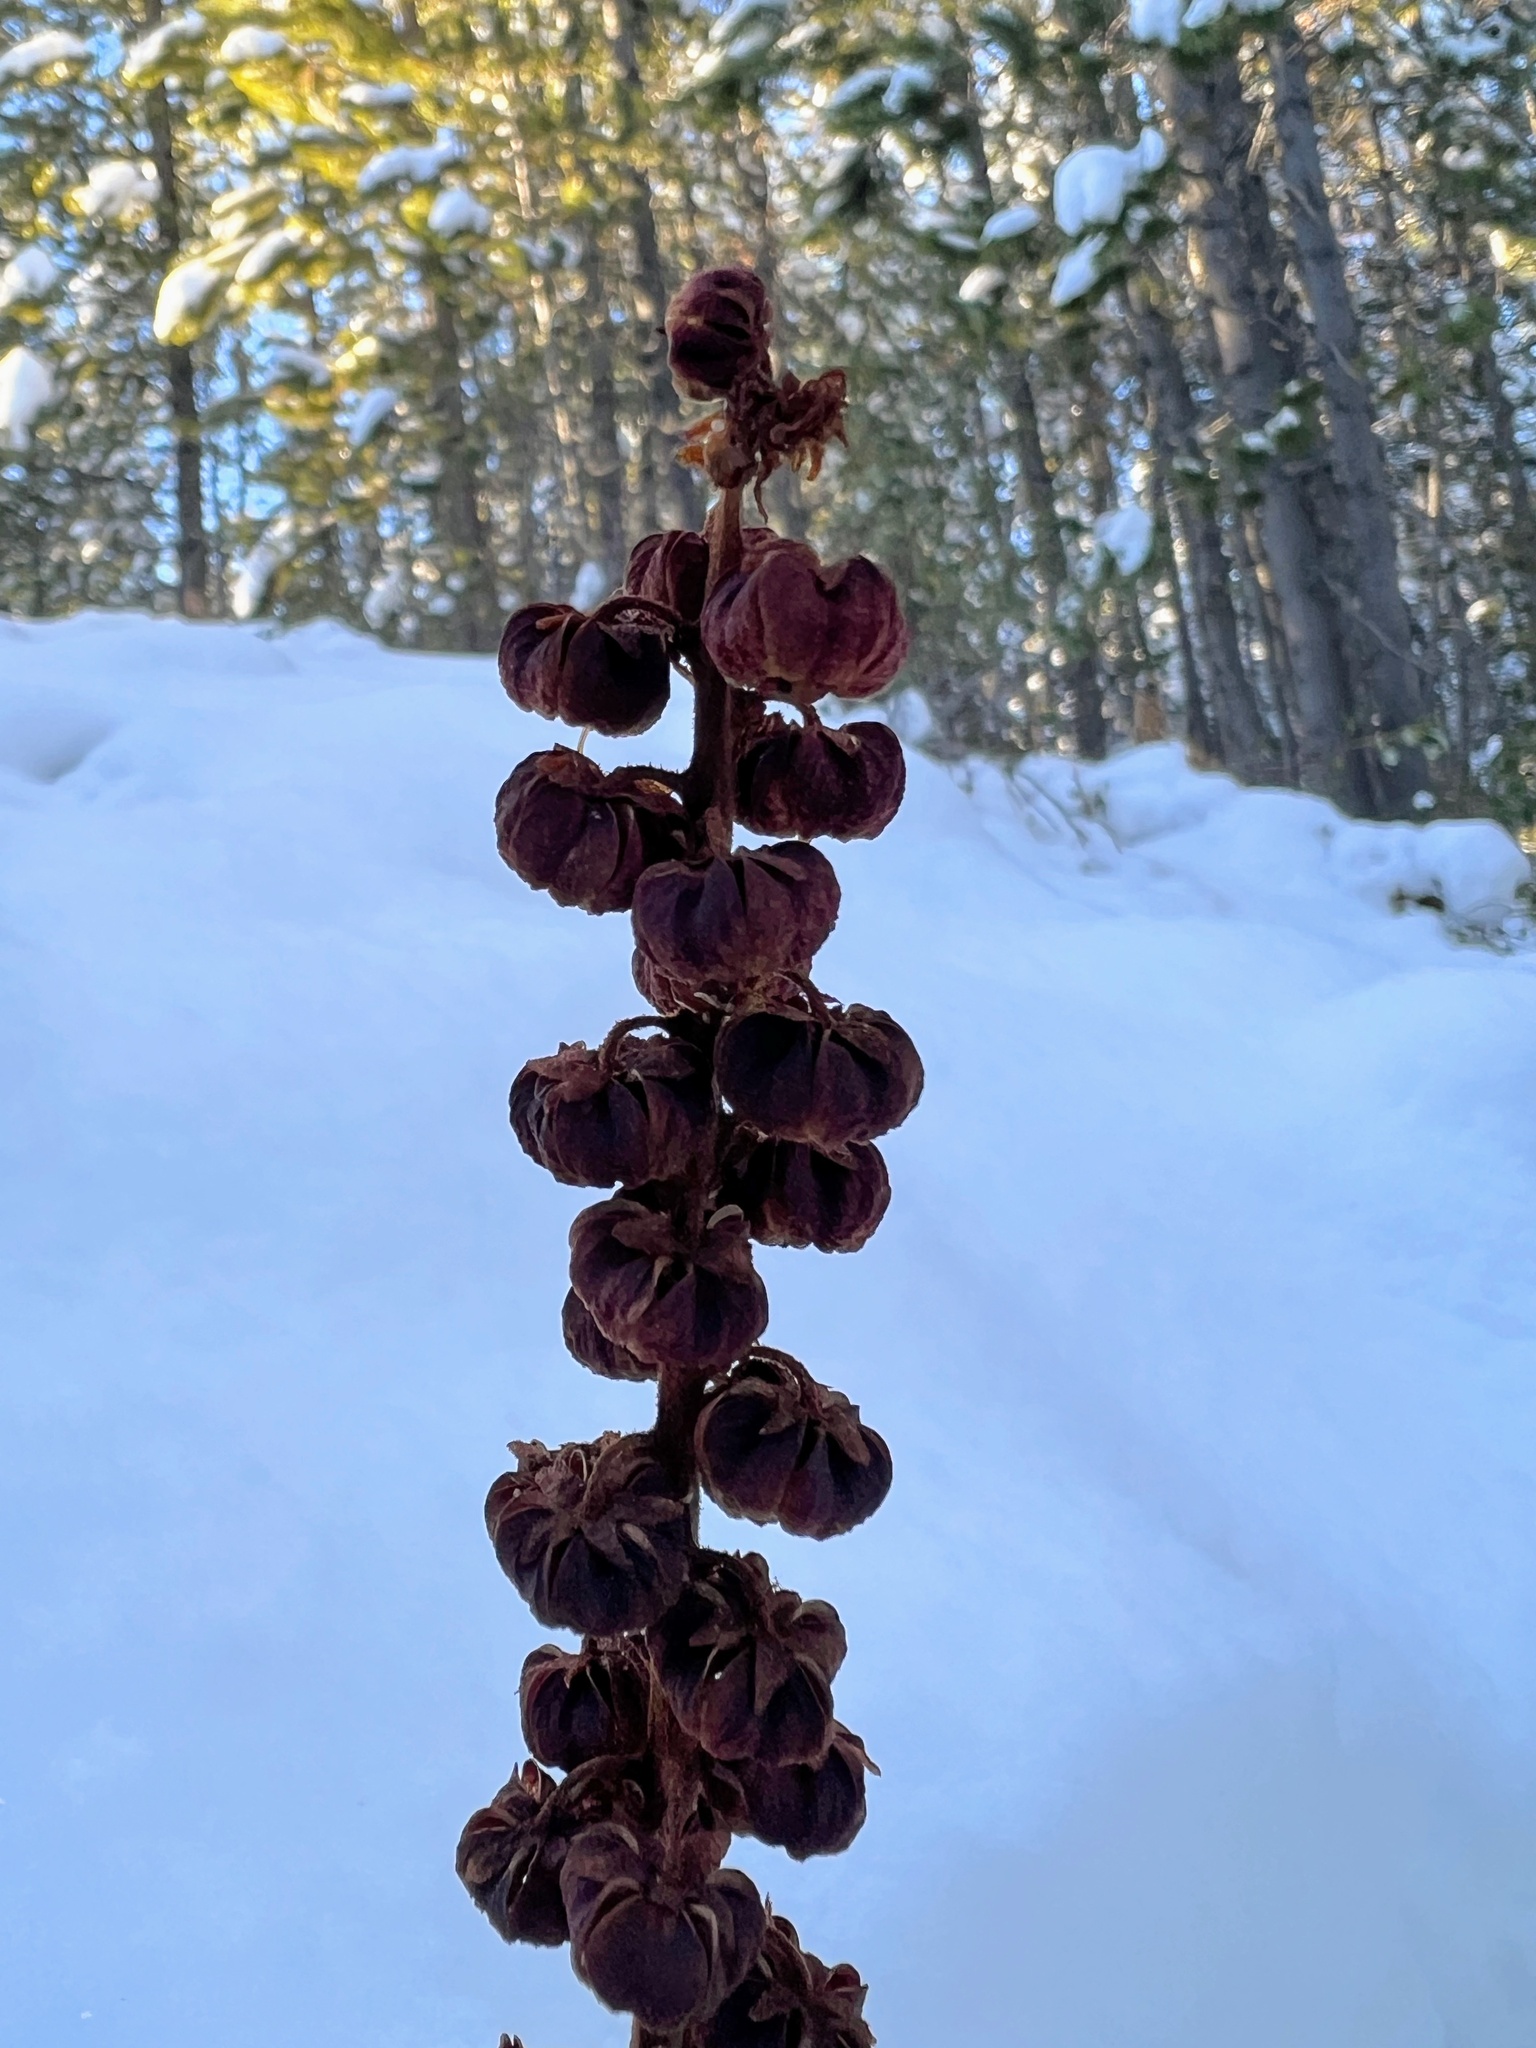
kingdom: Plantae
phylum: Tracheophyta
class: Magnoliopsida
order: Ericales
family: Ericaceae
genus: Pterospora
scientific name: Pterospora andromedea
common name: Giant bird's-nest
